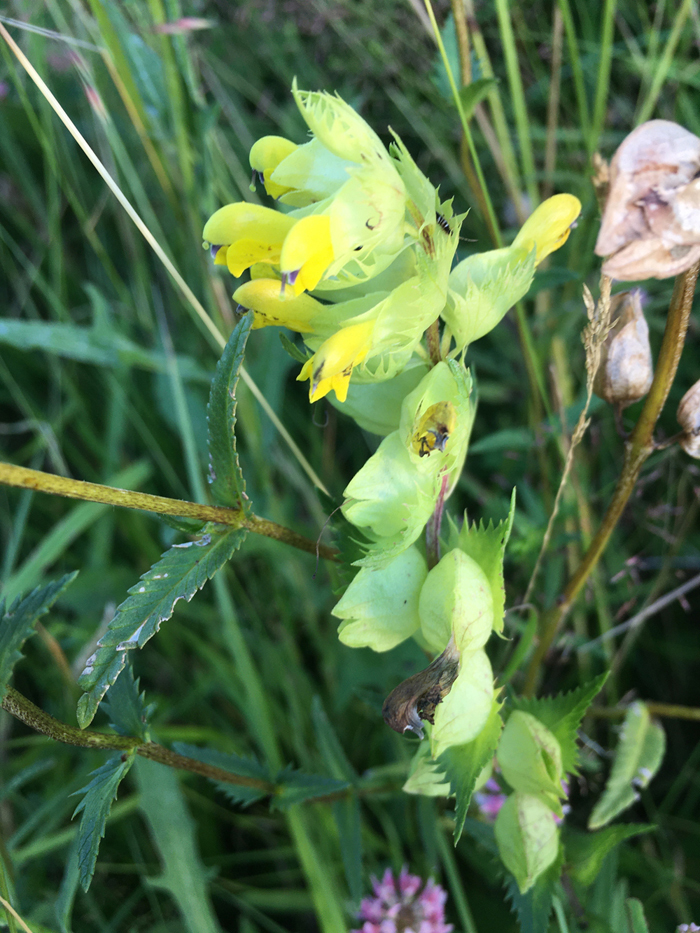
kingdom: Plantae
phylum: Tracheophyta
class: Magnoliopsida
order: Lamiales
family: Orobanchaceae
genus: Rhinanthus
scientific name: Rhinanthus serotinus
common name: Late-flowering yellow rattle
